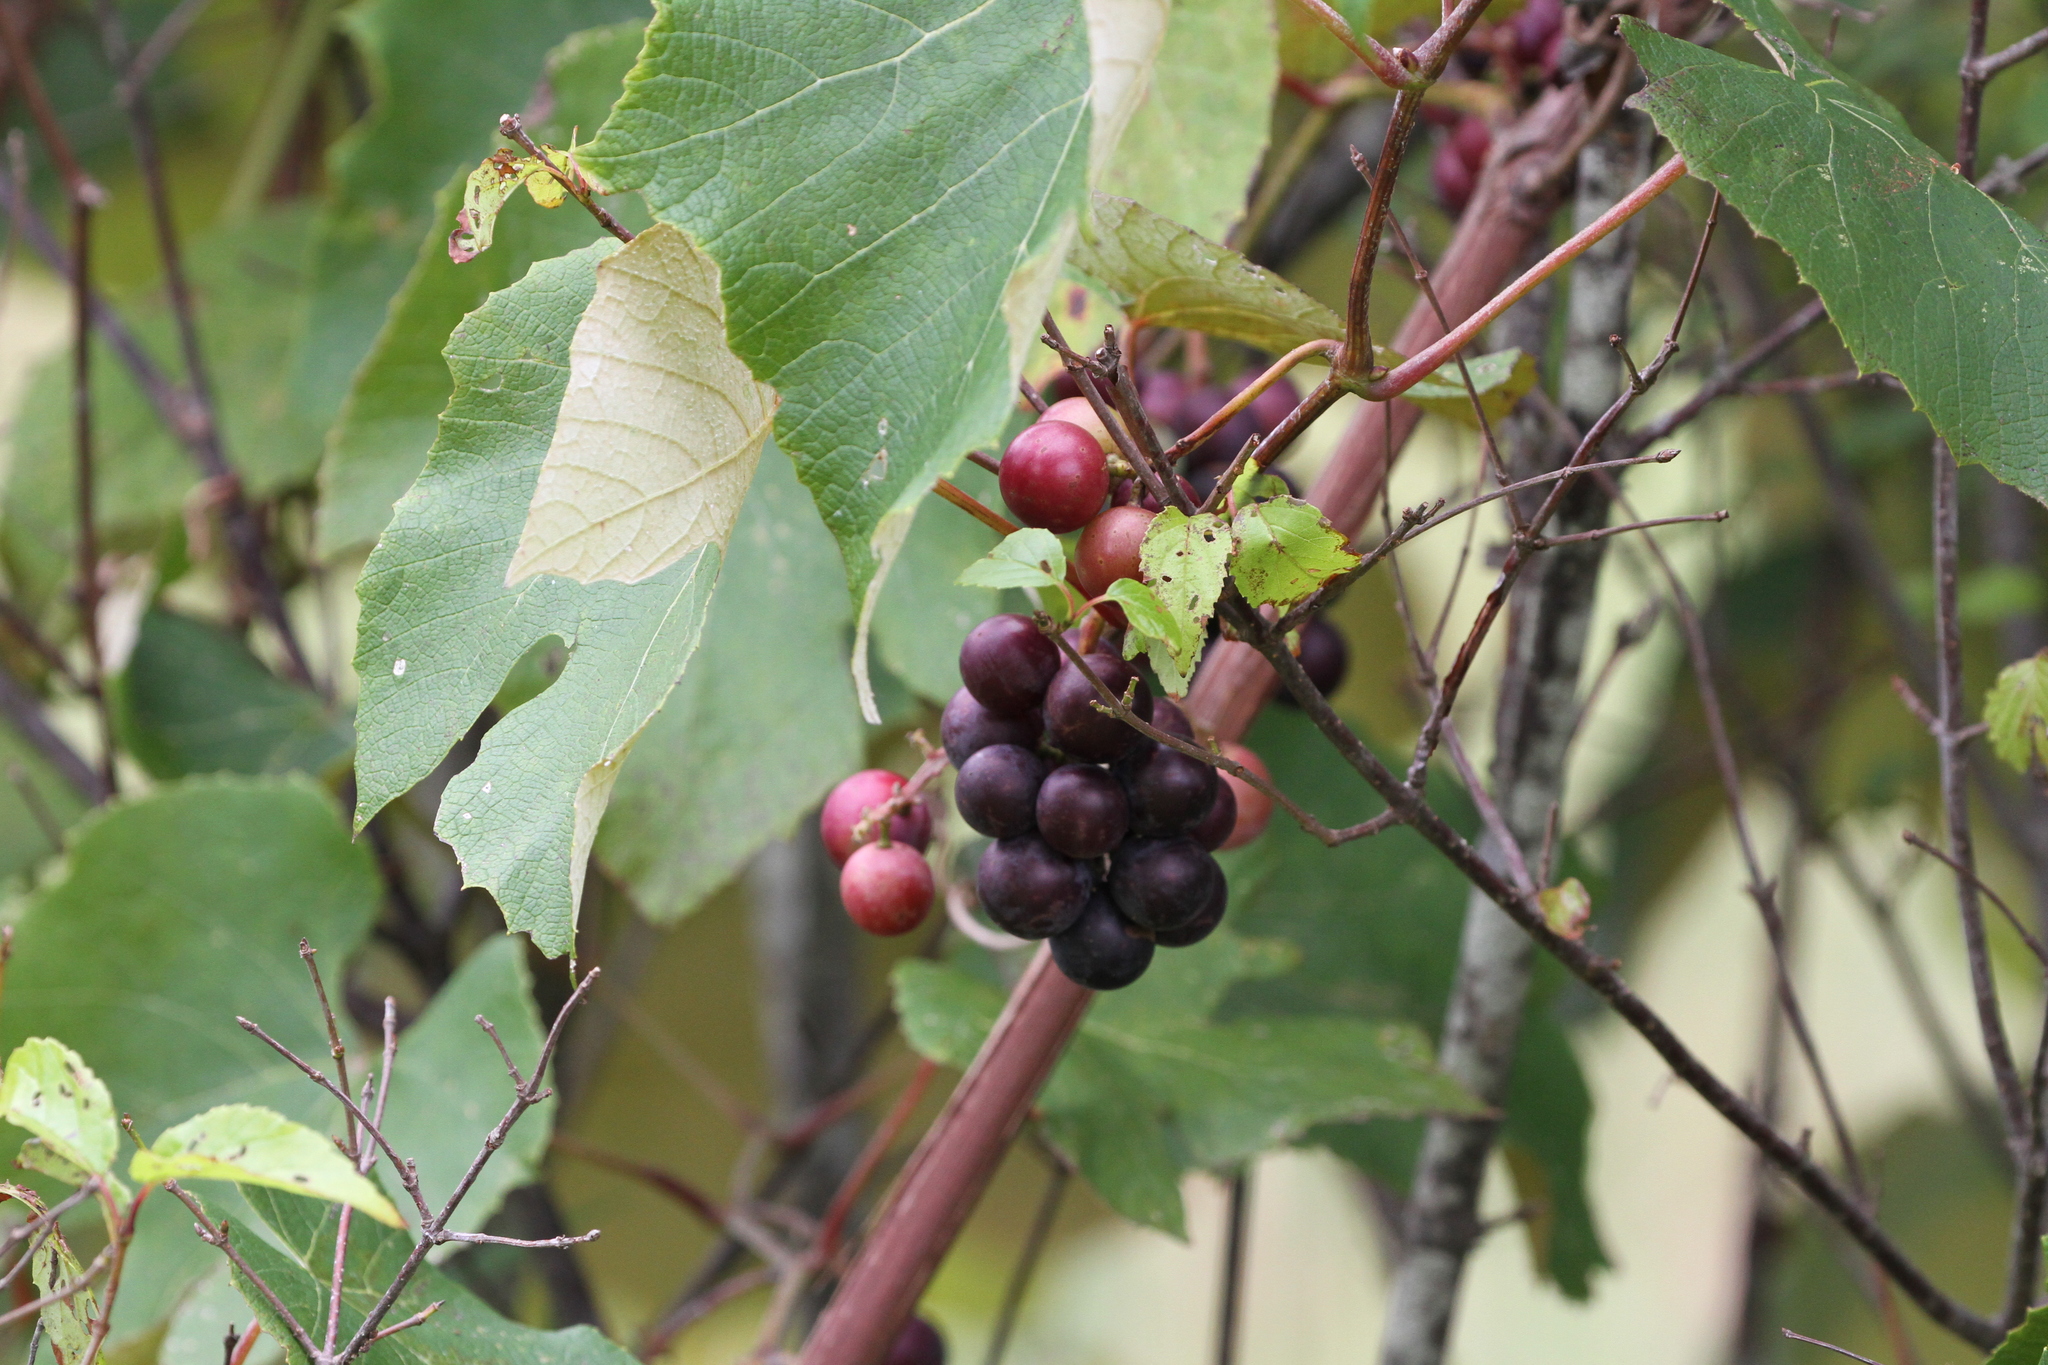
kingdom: Plantae
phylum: Tracheophyta
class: Magnoliopsida
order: Vitales
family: Vitaceae
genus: Vitis
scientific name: Vitis labrusca
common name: Concord grape
